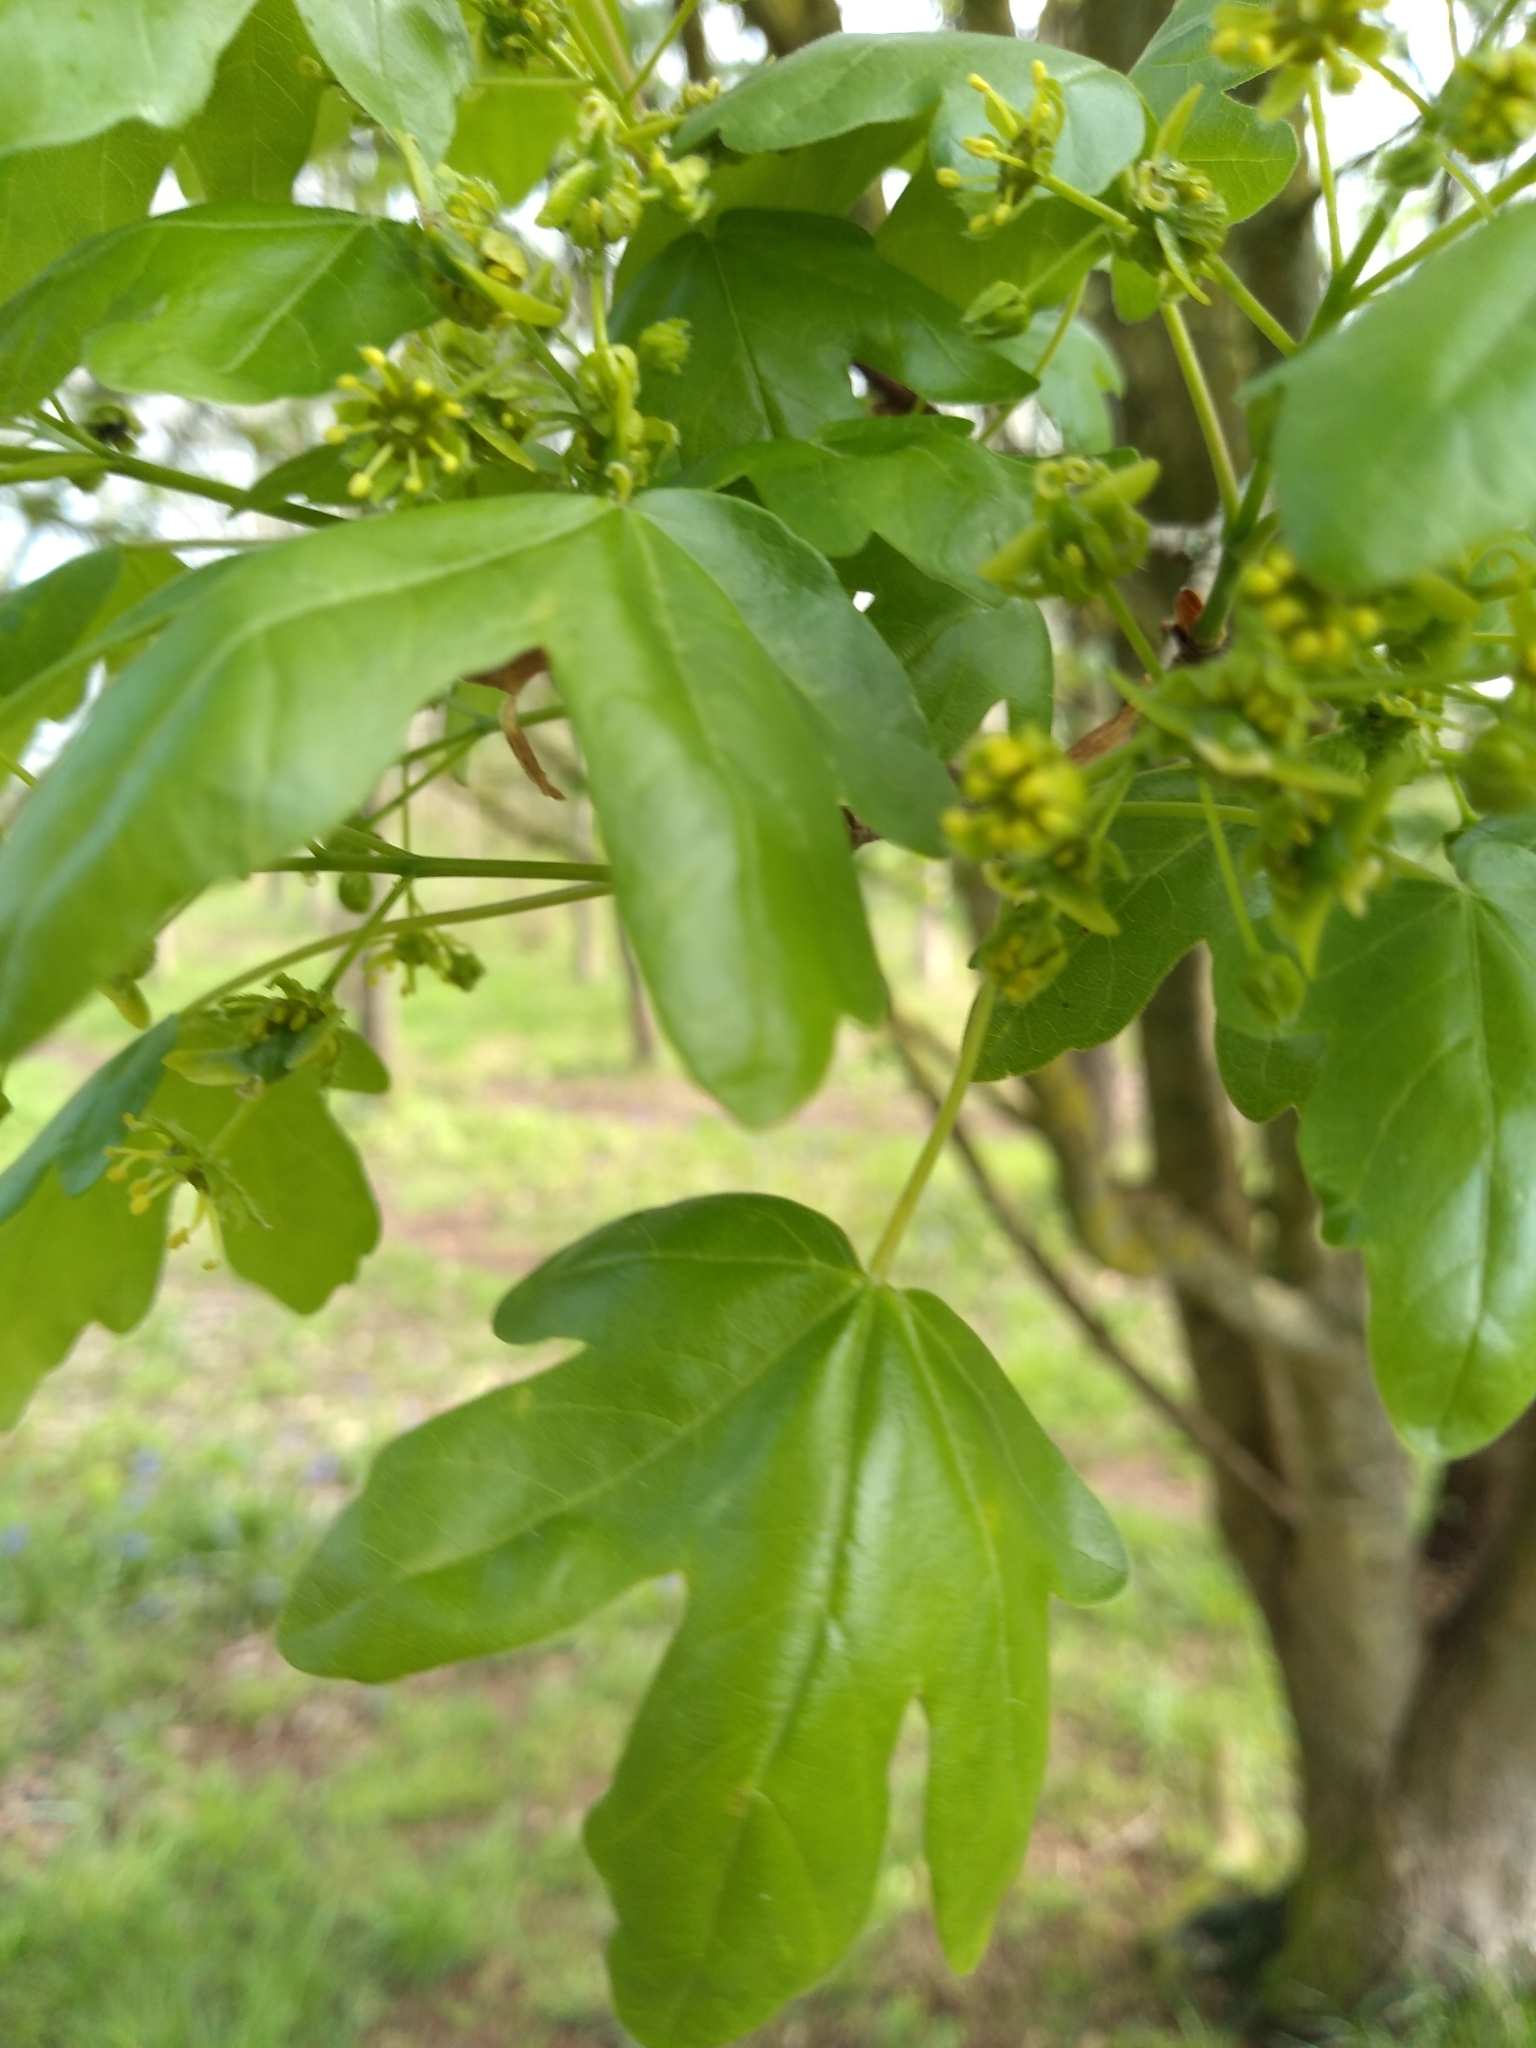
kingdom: Plantae
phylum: Tracheophyta
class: Magnoliopsida
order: Sapindales
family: Sapindaceae
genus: Acer
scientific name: Acer campestre
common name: Field maple
